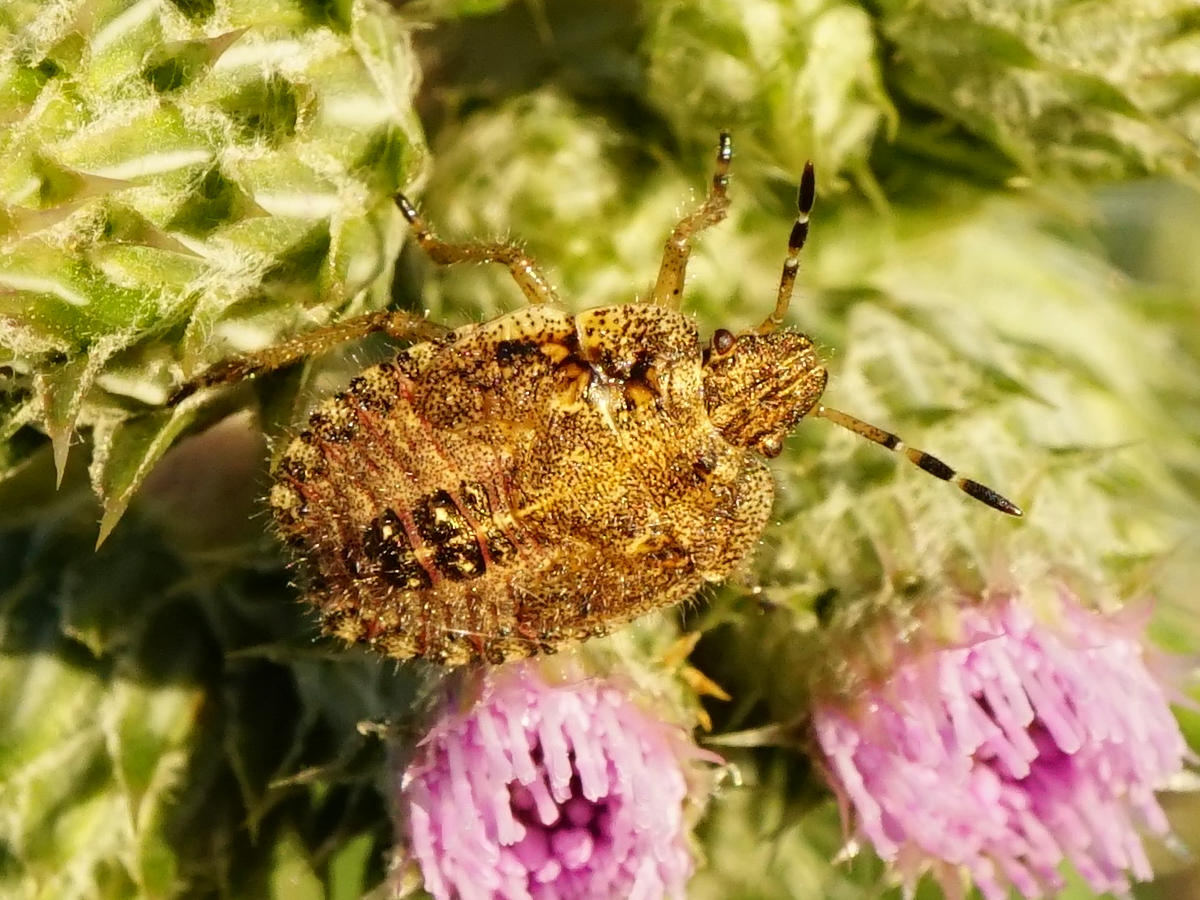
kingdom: Animalia
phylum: Arthropoda
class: Insecta
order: Hemiptera
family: Pentatomidae
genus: Dolycoris
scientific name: Dolycoris baccarum
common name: Sloe bug
